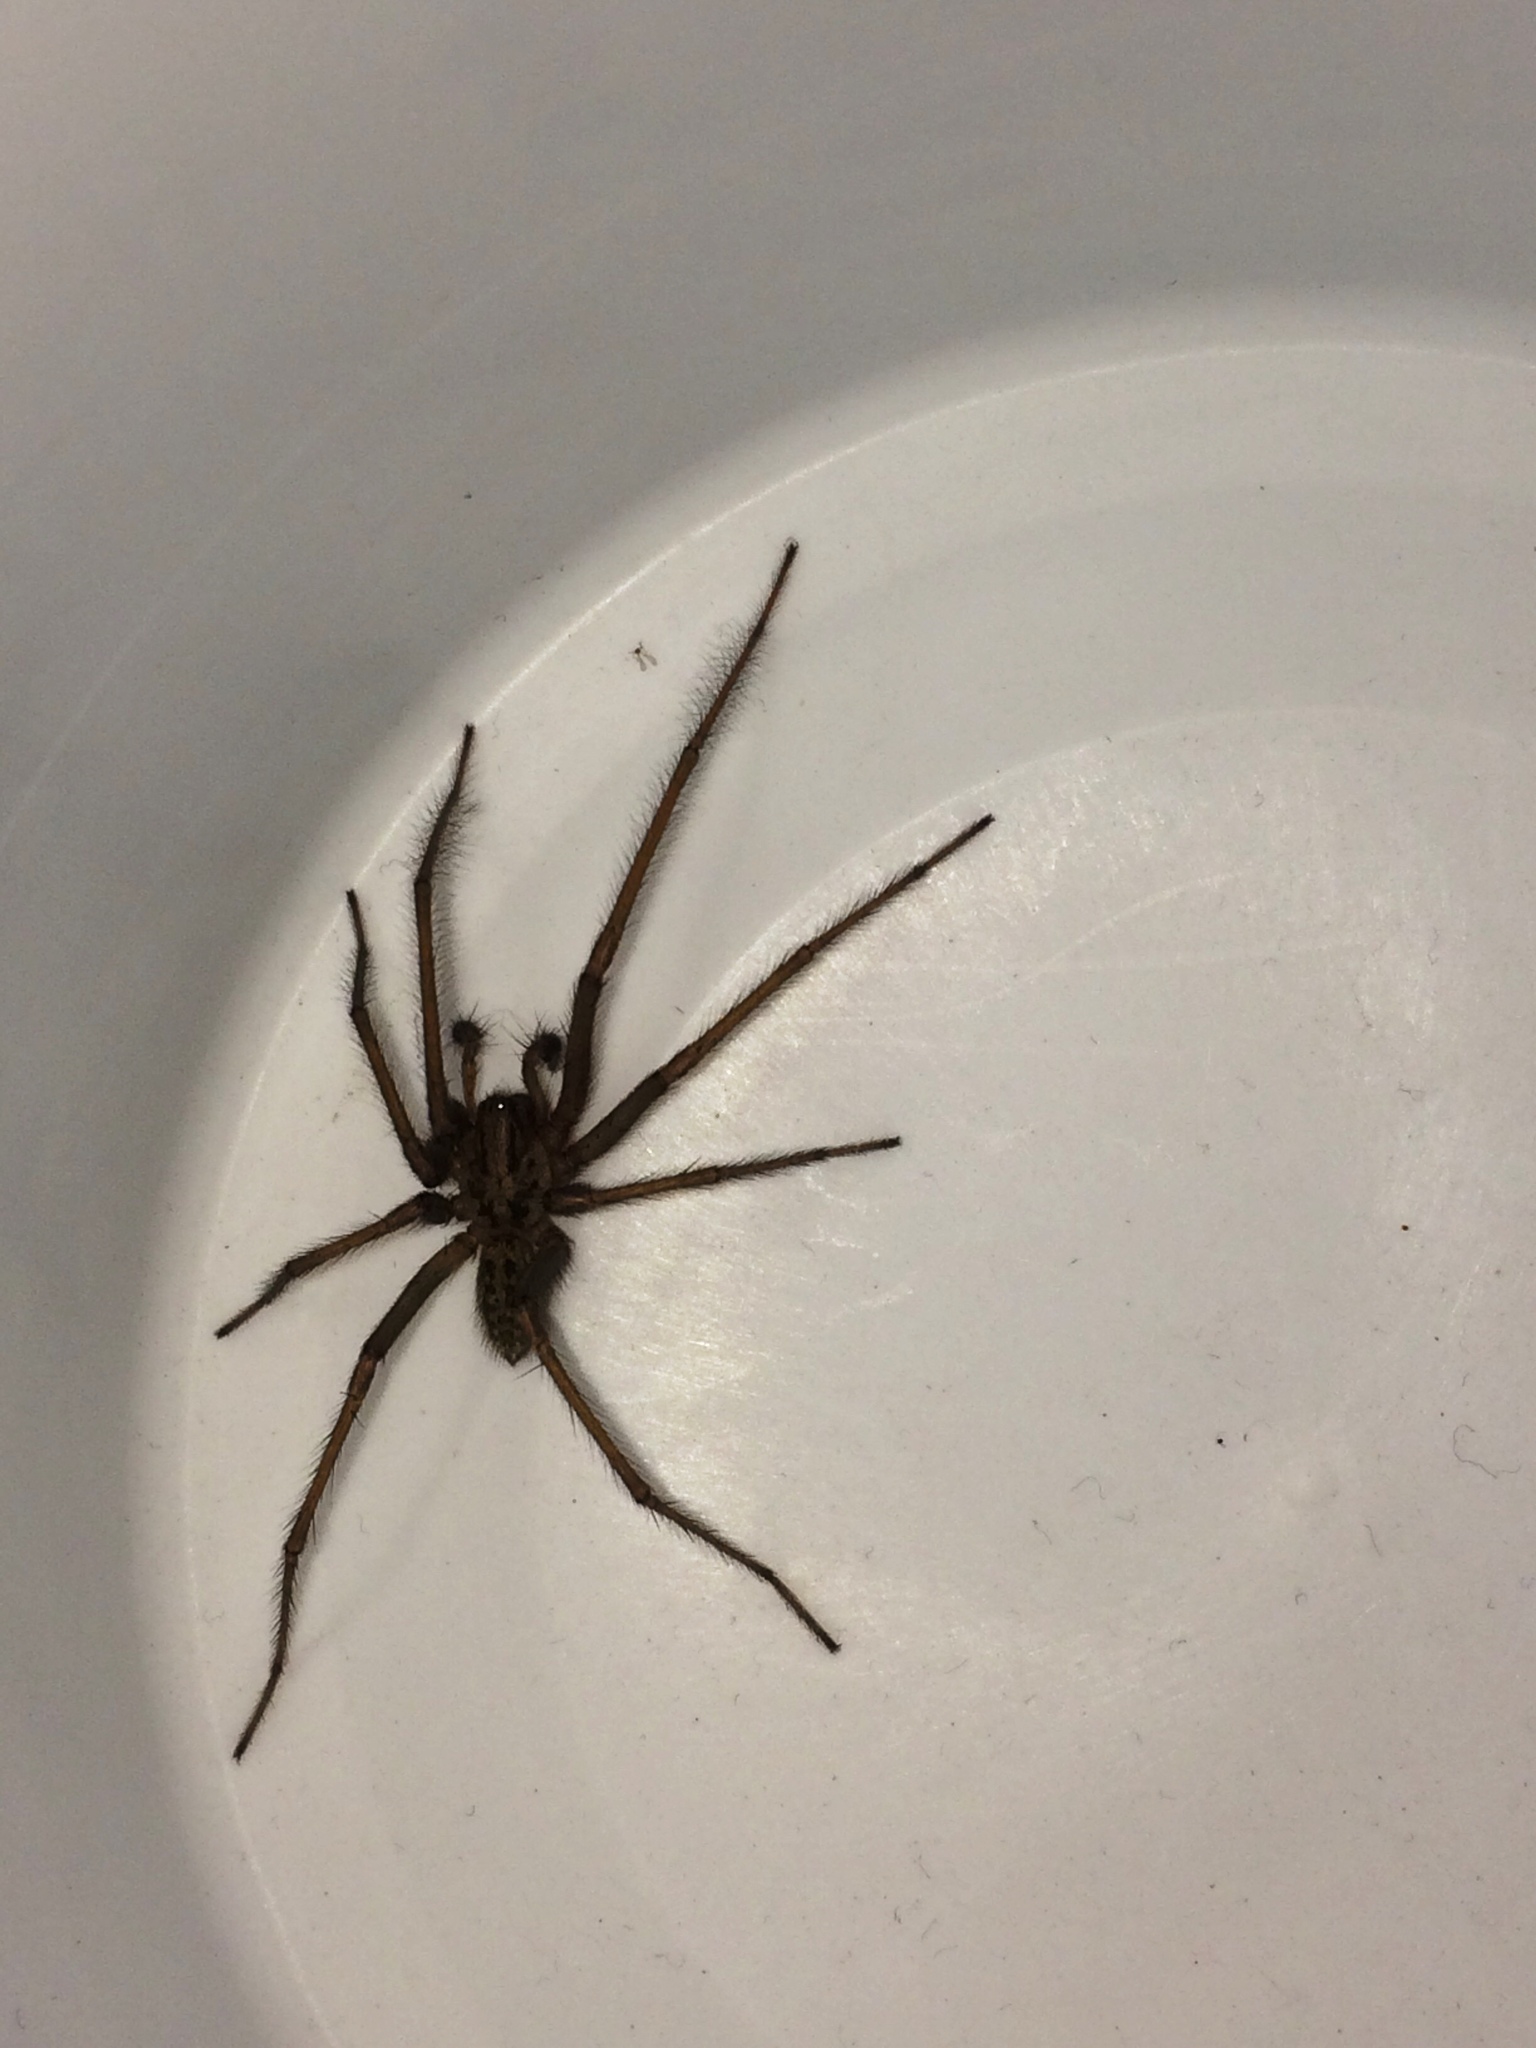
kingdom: Animalia
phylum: Arthropoda
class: Arachnida
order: Araneae
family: Agelenidae
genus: Eratigena
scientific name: Eratigena
